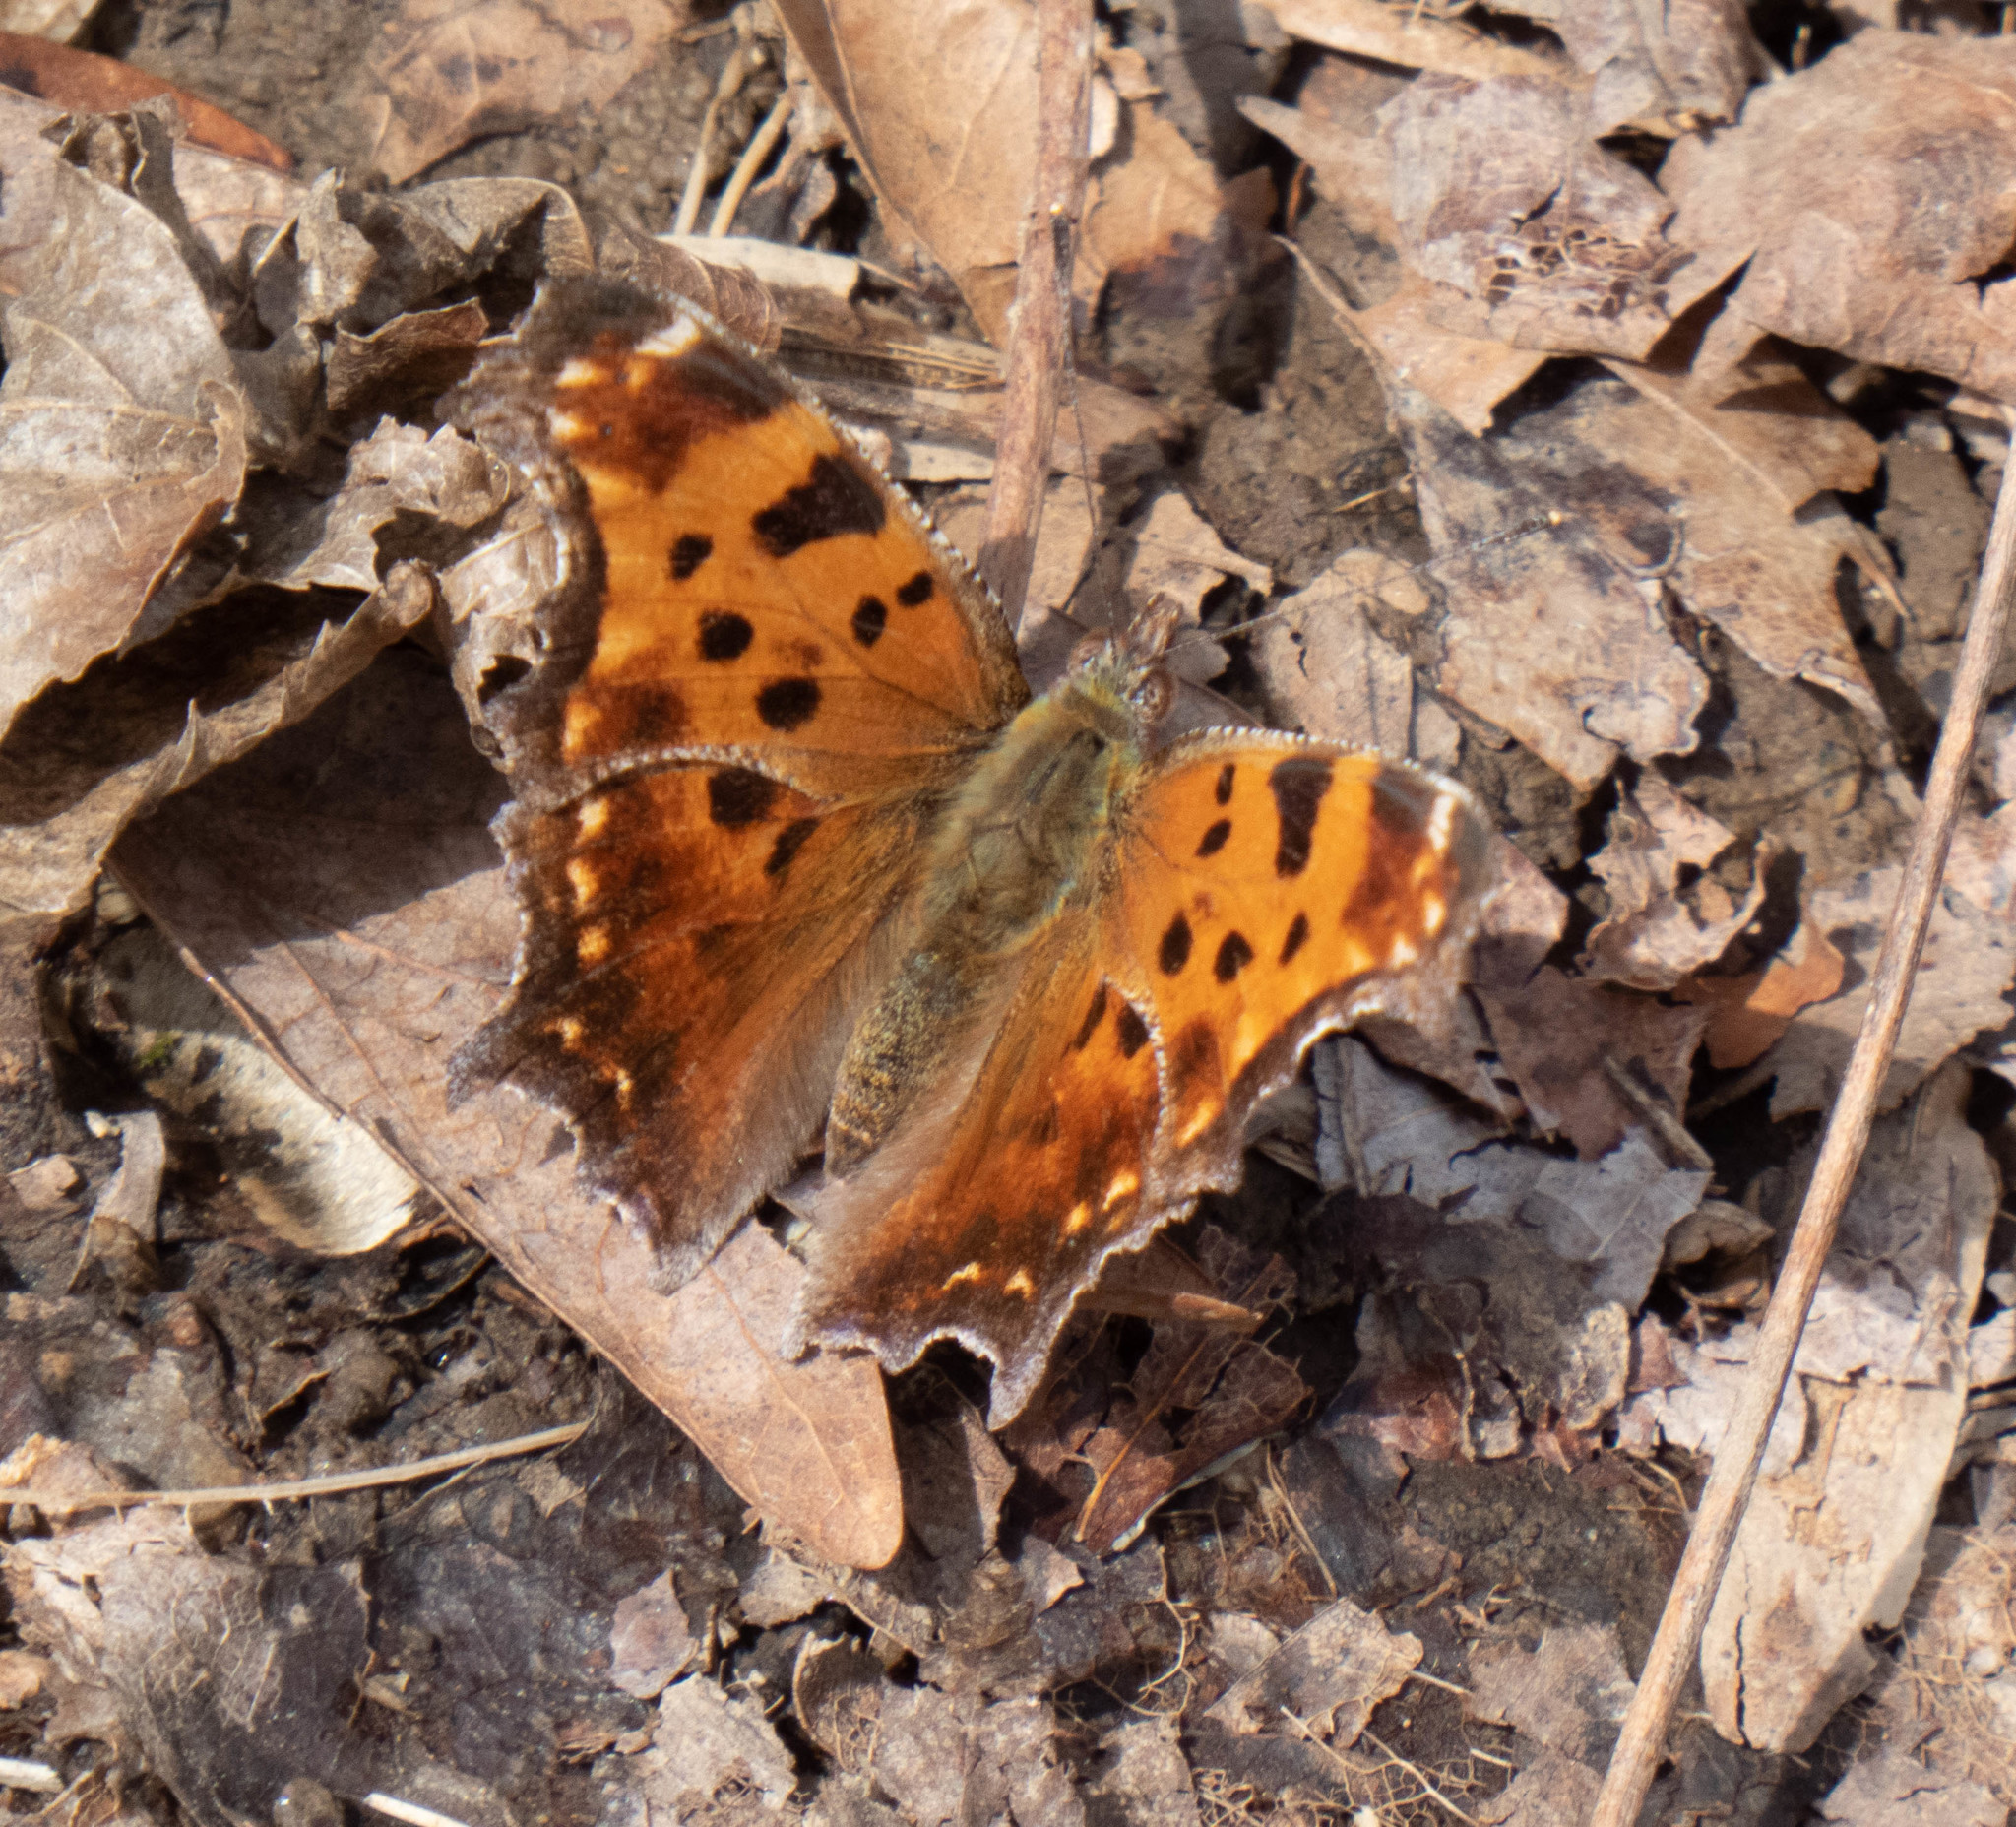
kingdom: Animalia
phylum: Arthropoda
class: Insecta
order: Lepidoptera
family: Nymphalidae
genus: Polygonia
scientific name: Polygonia comma
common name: Eastern comma
